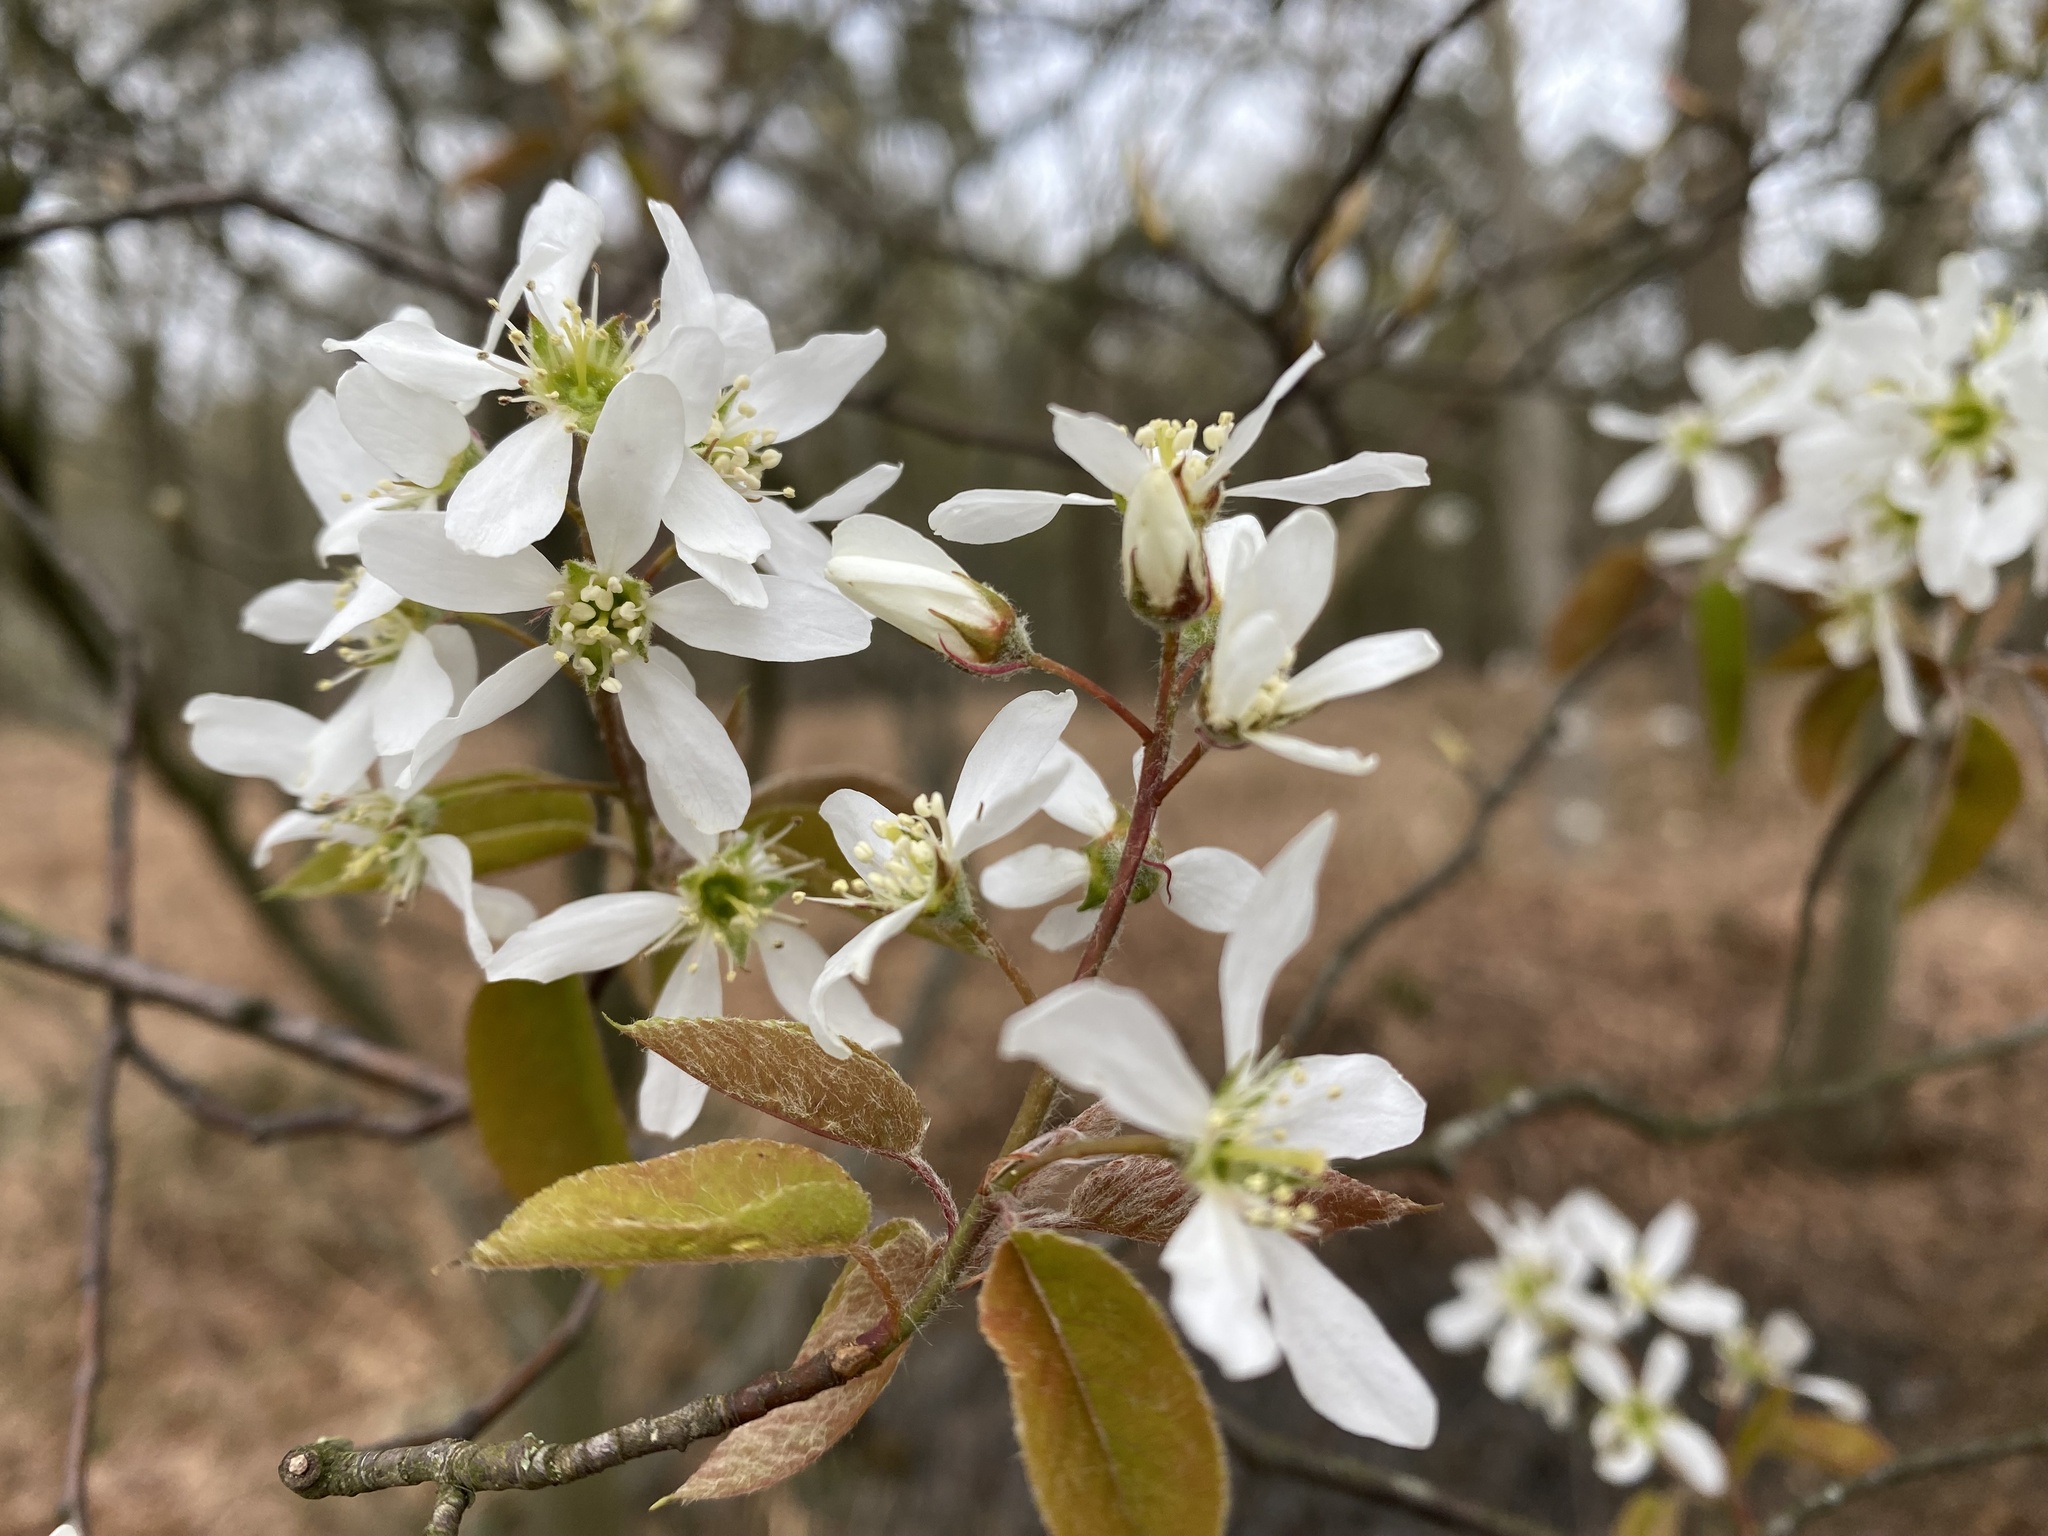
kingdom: Plantae
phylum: Tracheophyta
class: Magnoliopsida
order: Rosales
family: Rosaceae
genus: Amelanchier
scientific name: Amelanchier lamarckii
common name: Juneberry
